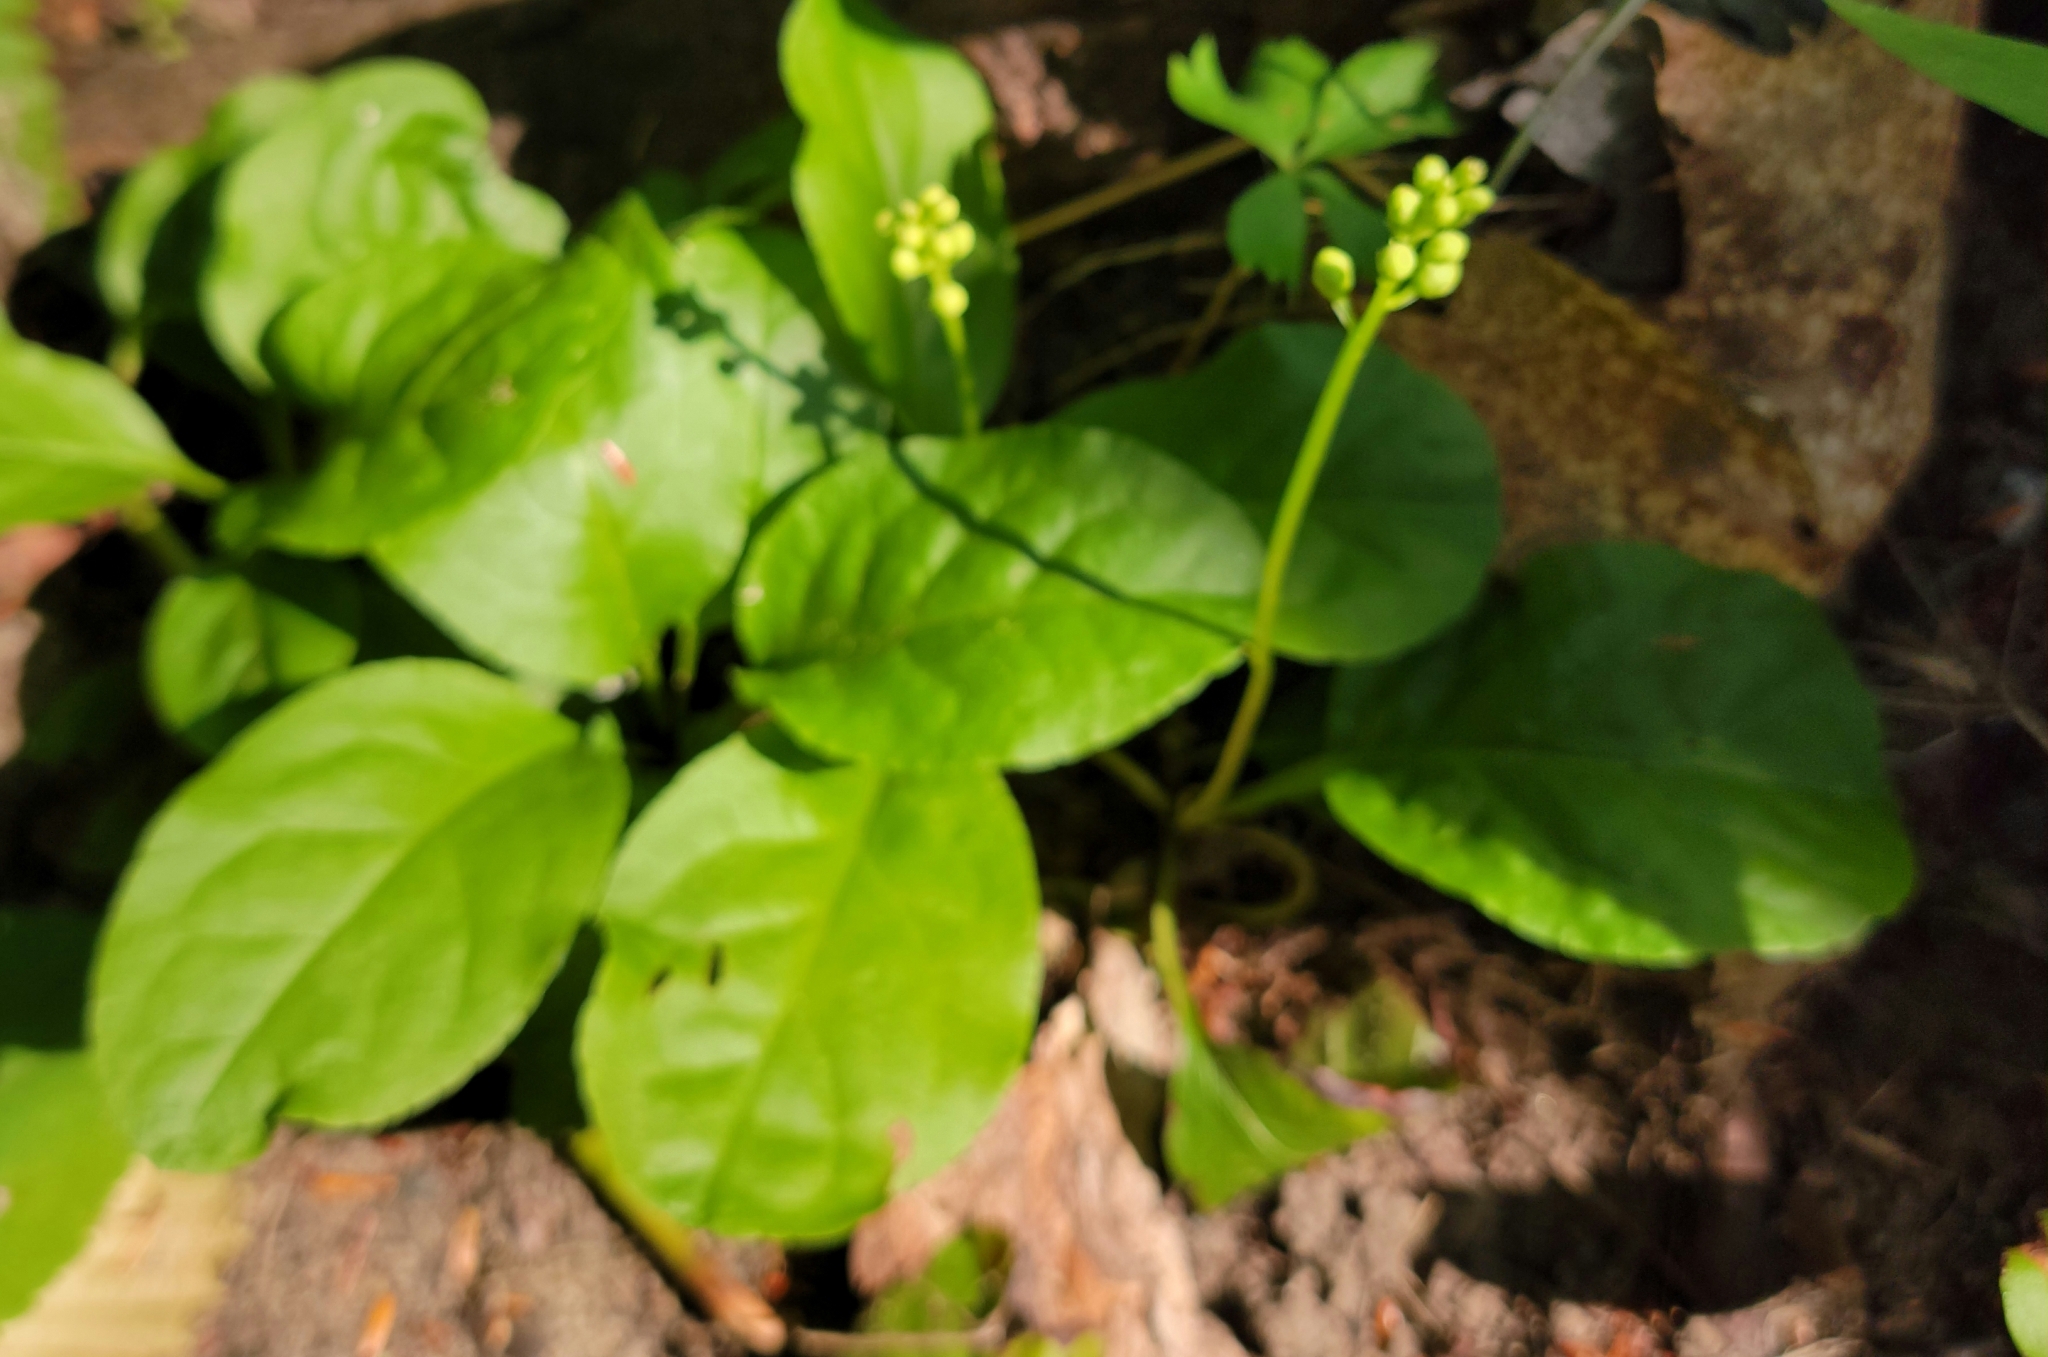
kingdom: Plantae
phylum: Tracheophyta
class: Magnoliopsida
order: Ericales
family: Ericaceae
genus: Pyrola
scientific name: Pyrola elliptica
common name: Shinleaf
